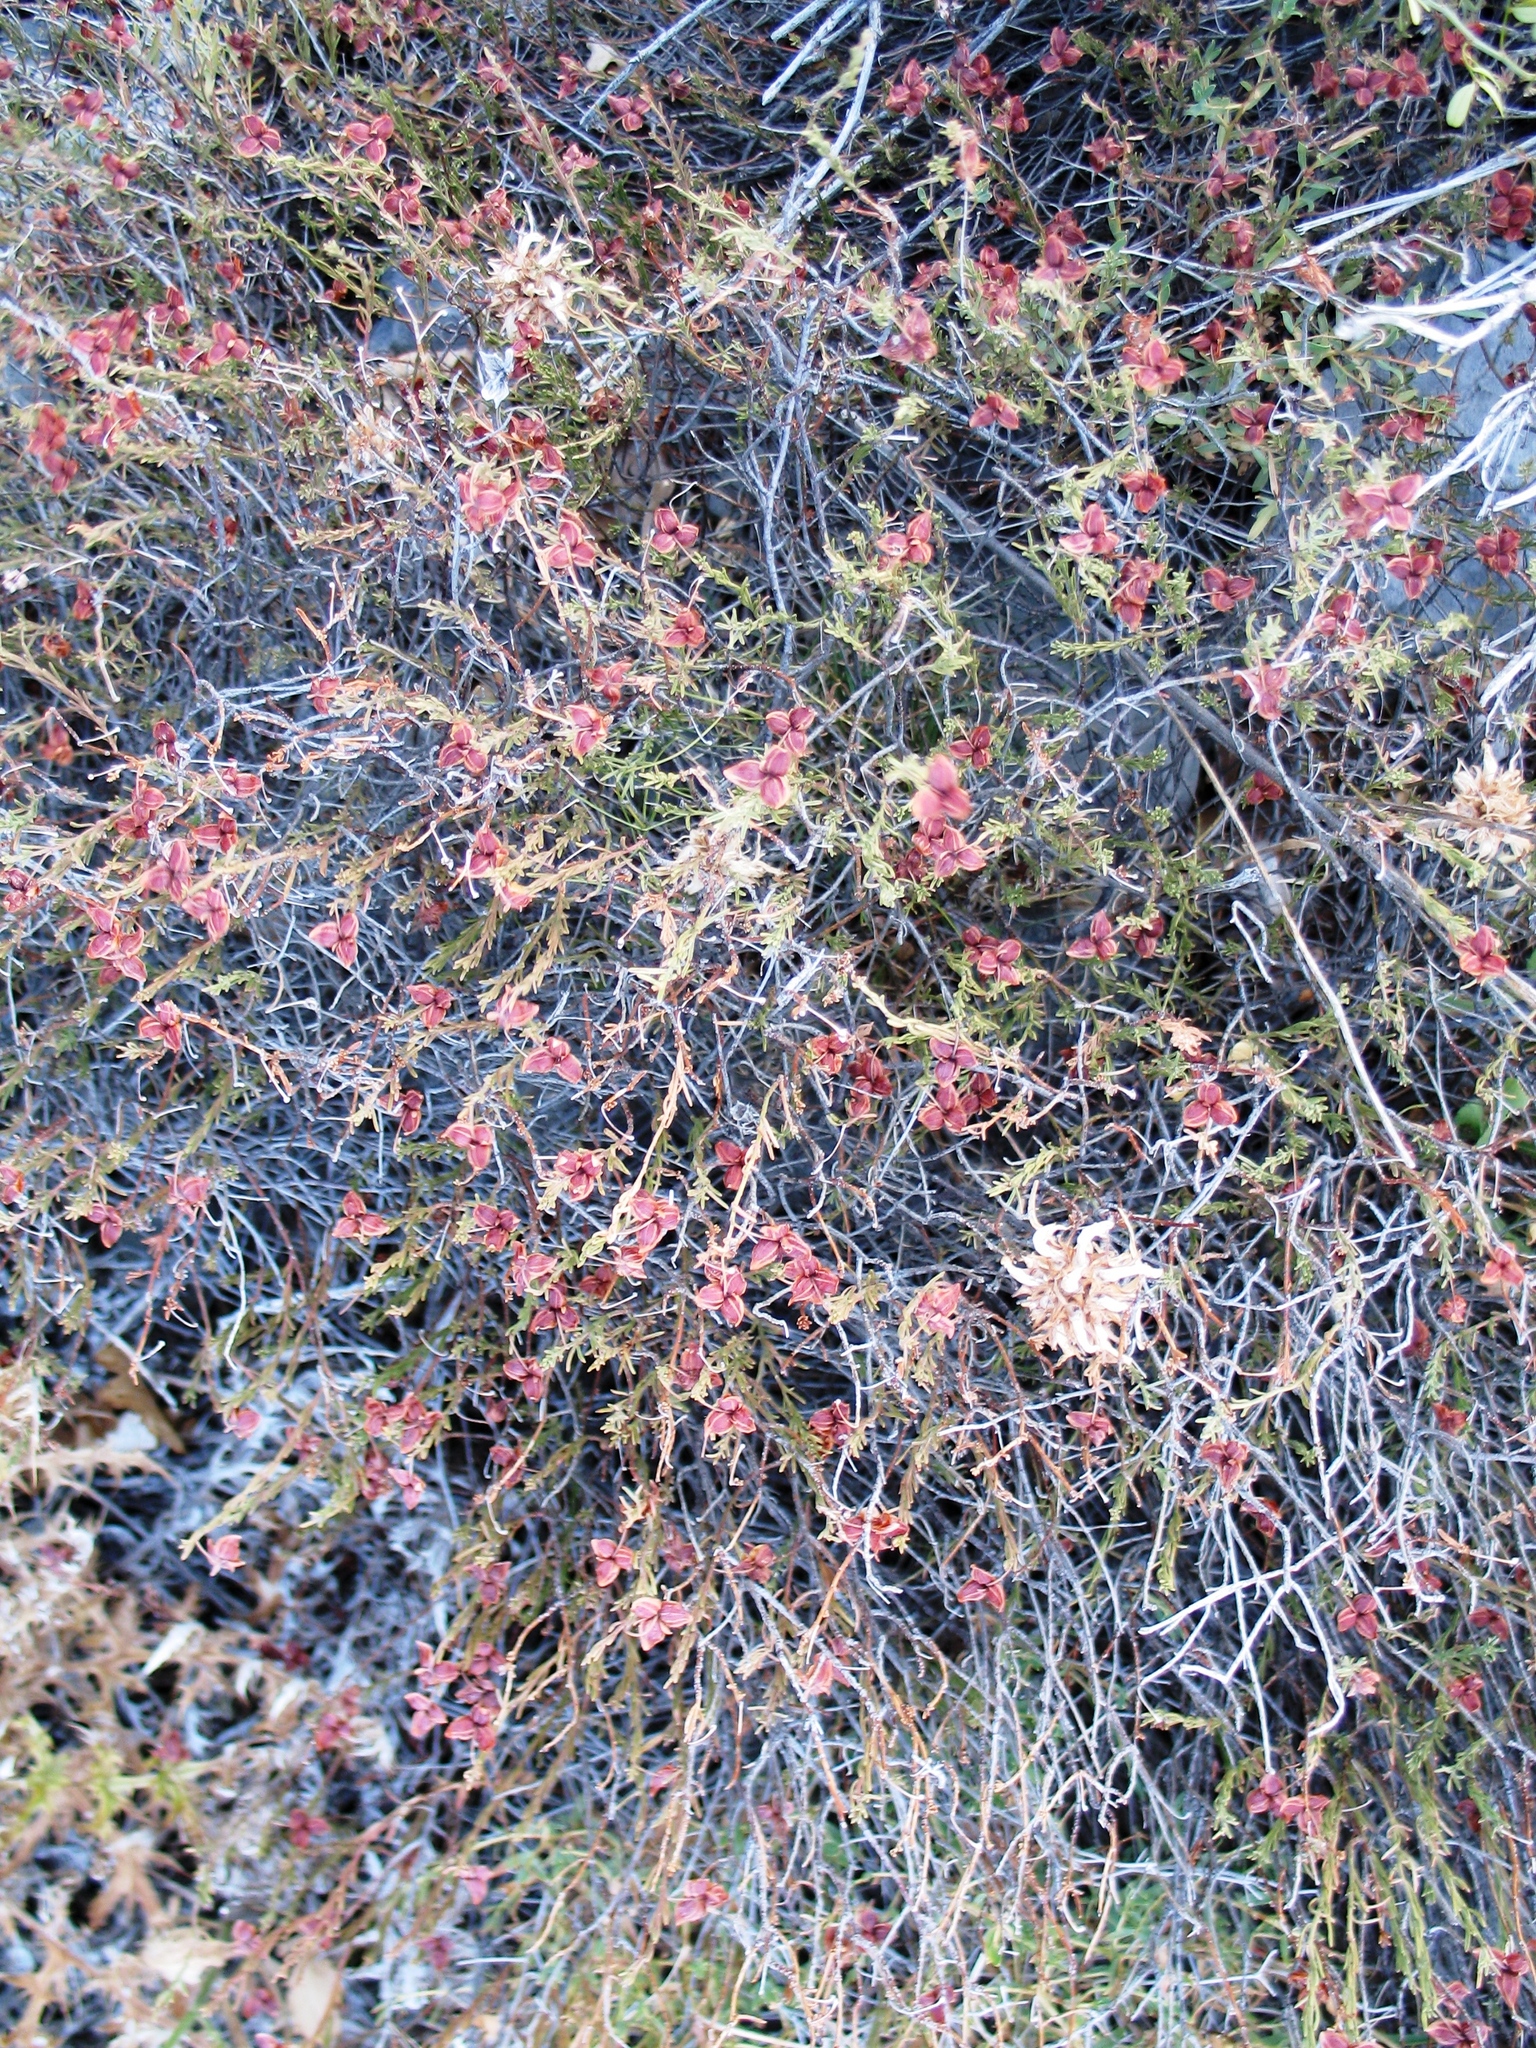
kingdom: Plantae
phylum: Tracheophyta
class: Magnoliopsida
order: Malvales
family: Cistaceae
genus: Fumana
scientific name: Fumana ericifolia
